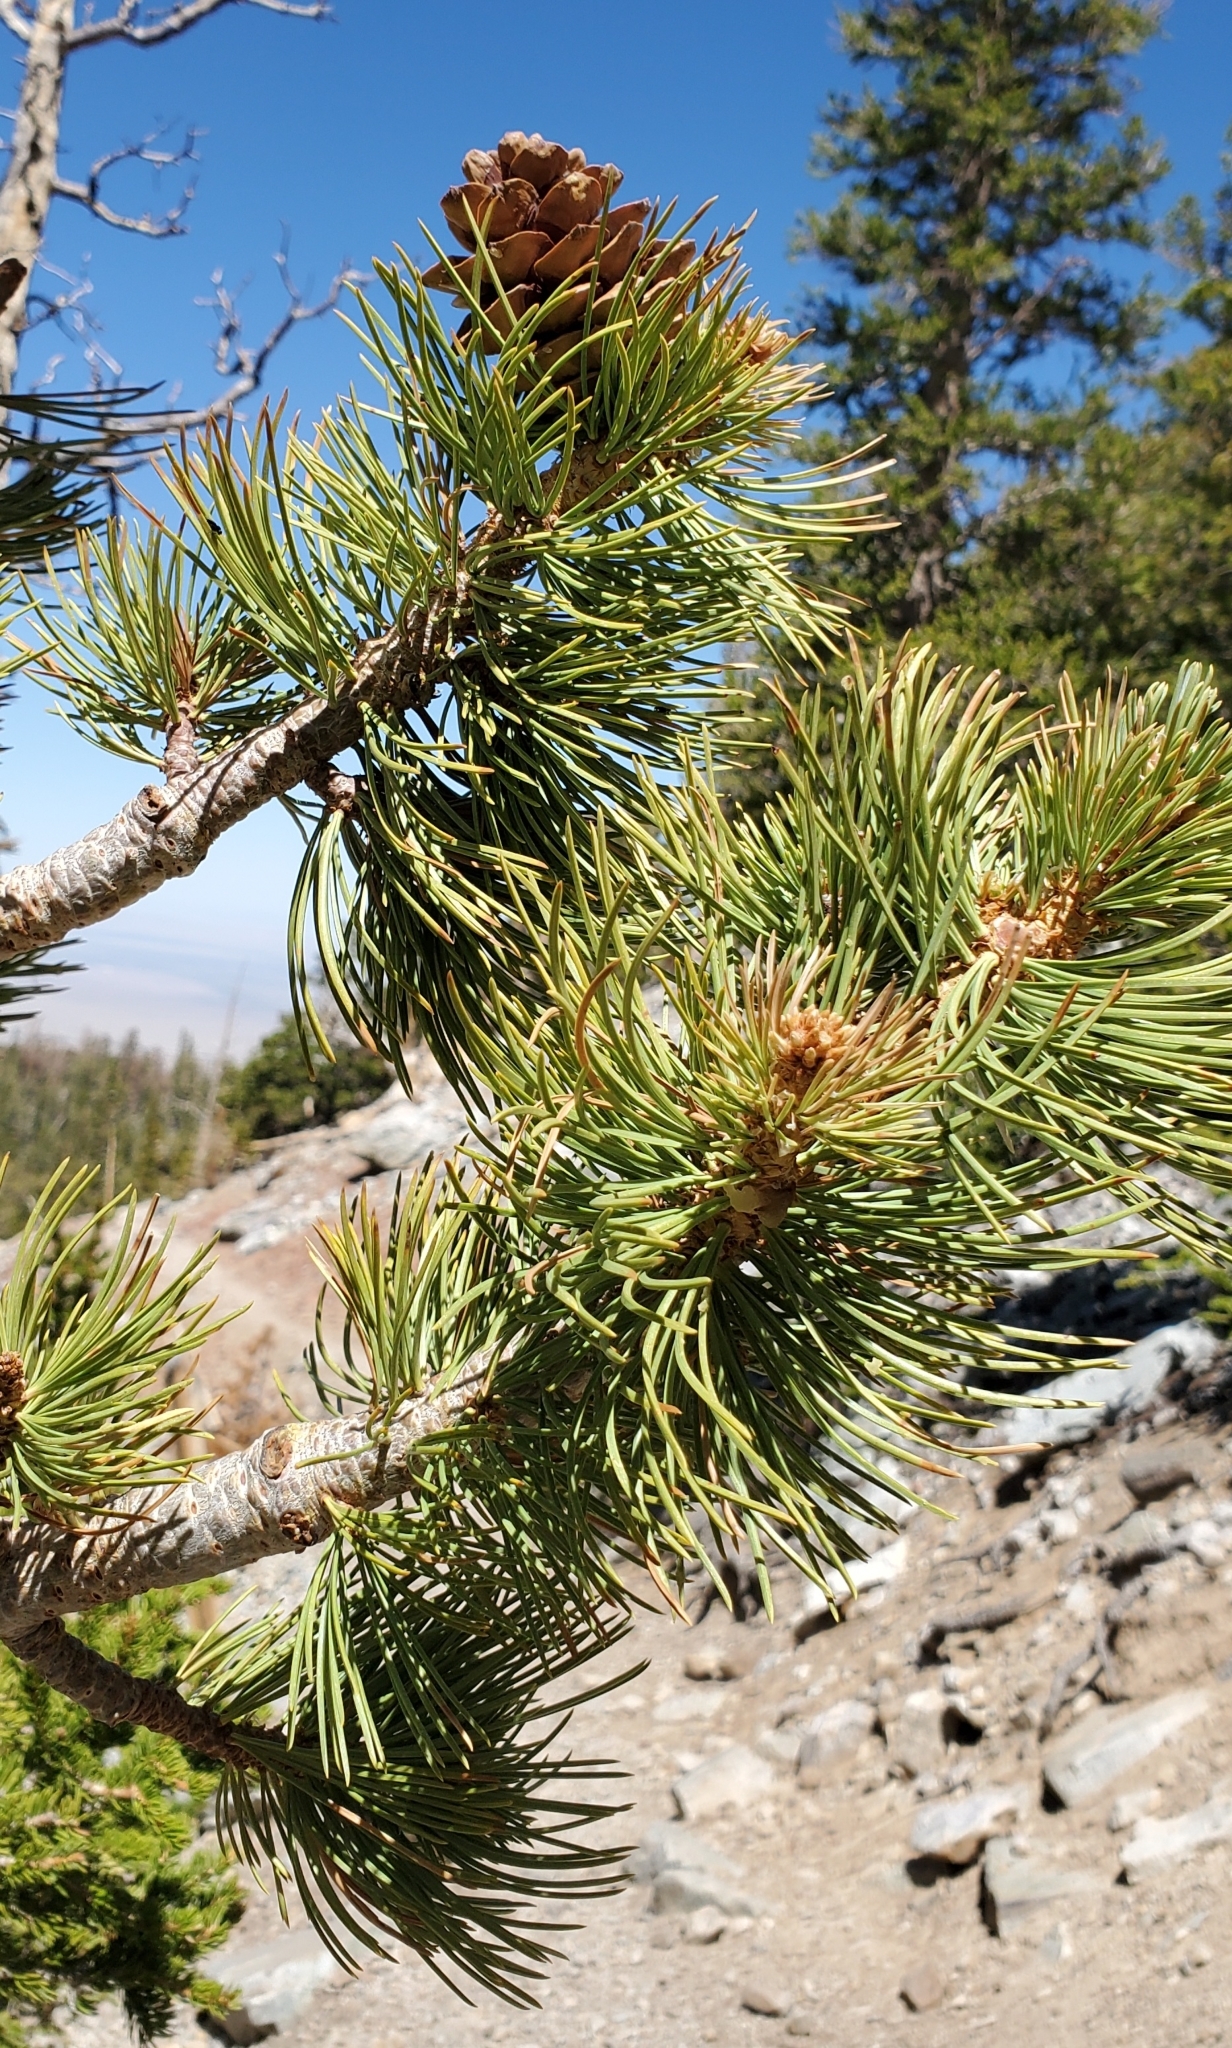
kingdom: Plantae
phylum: Tracheophyta
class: Pinopsida
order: Pinales
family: Pinaceae
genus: Pinus
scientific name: Pinus flexilis
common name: Limber pine
